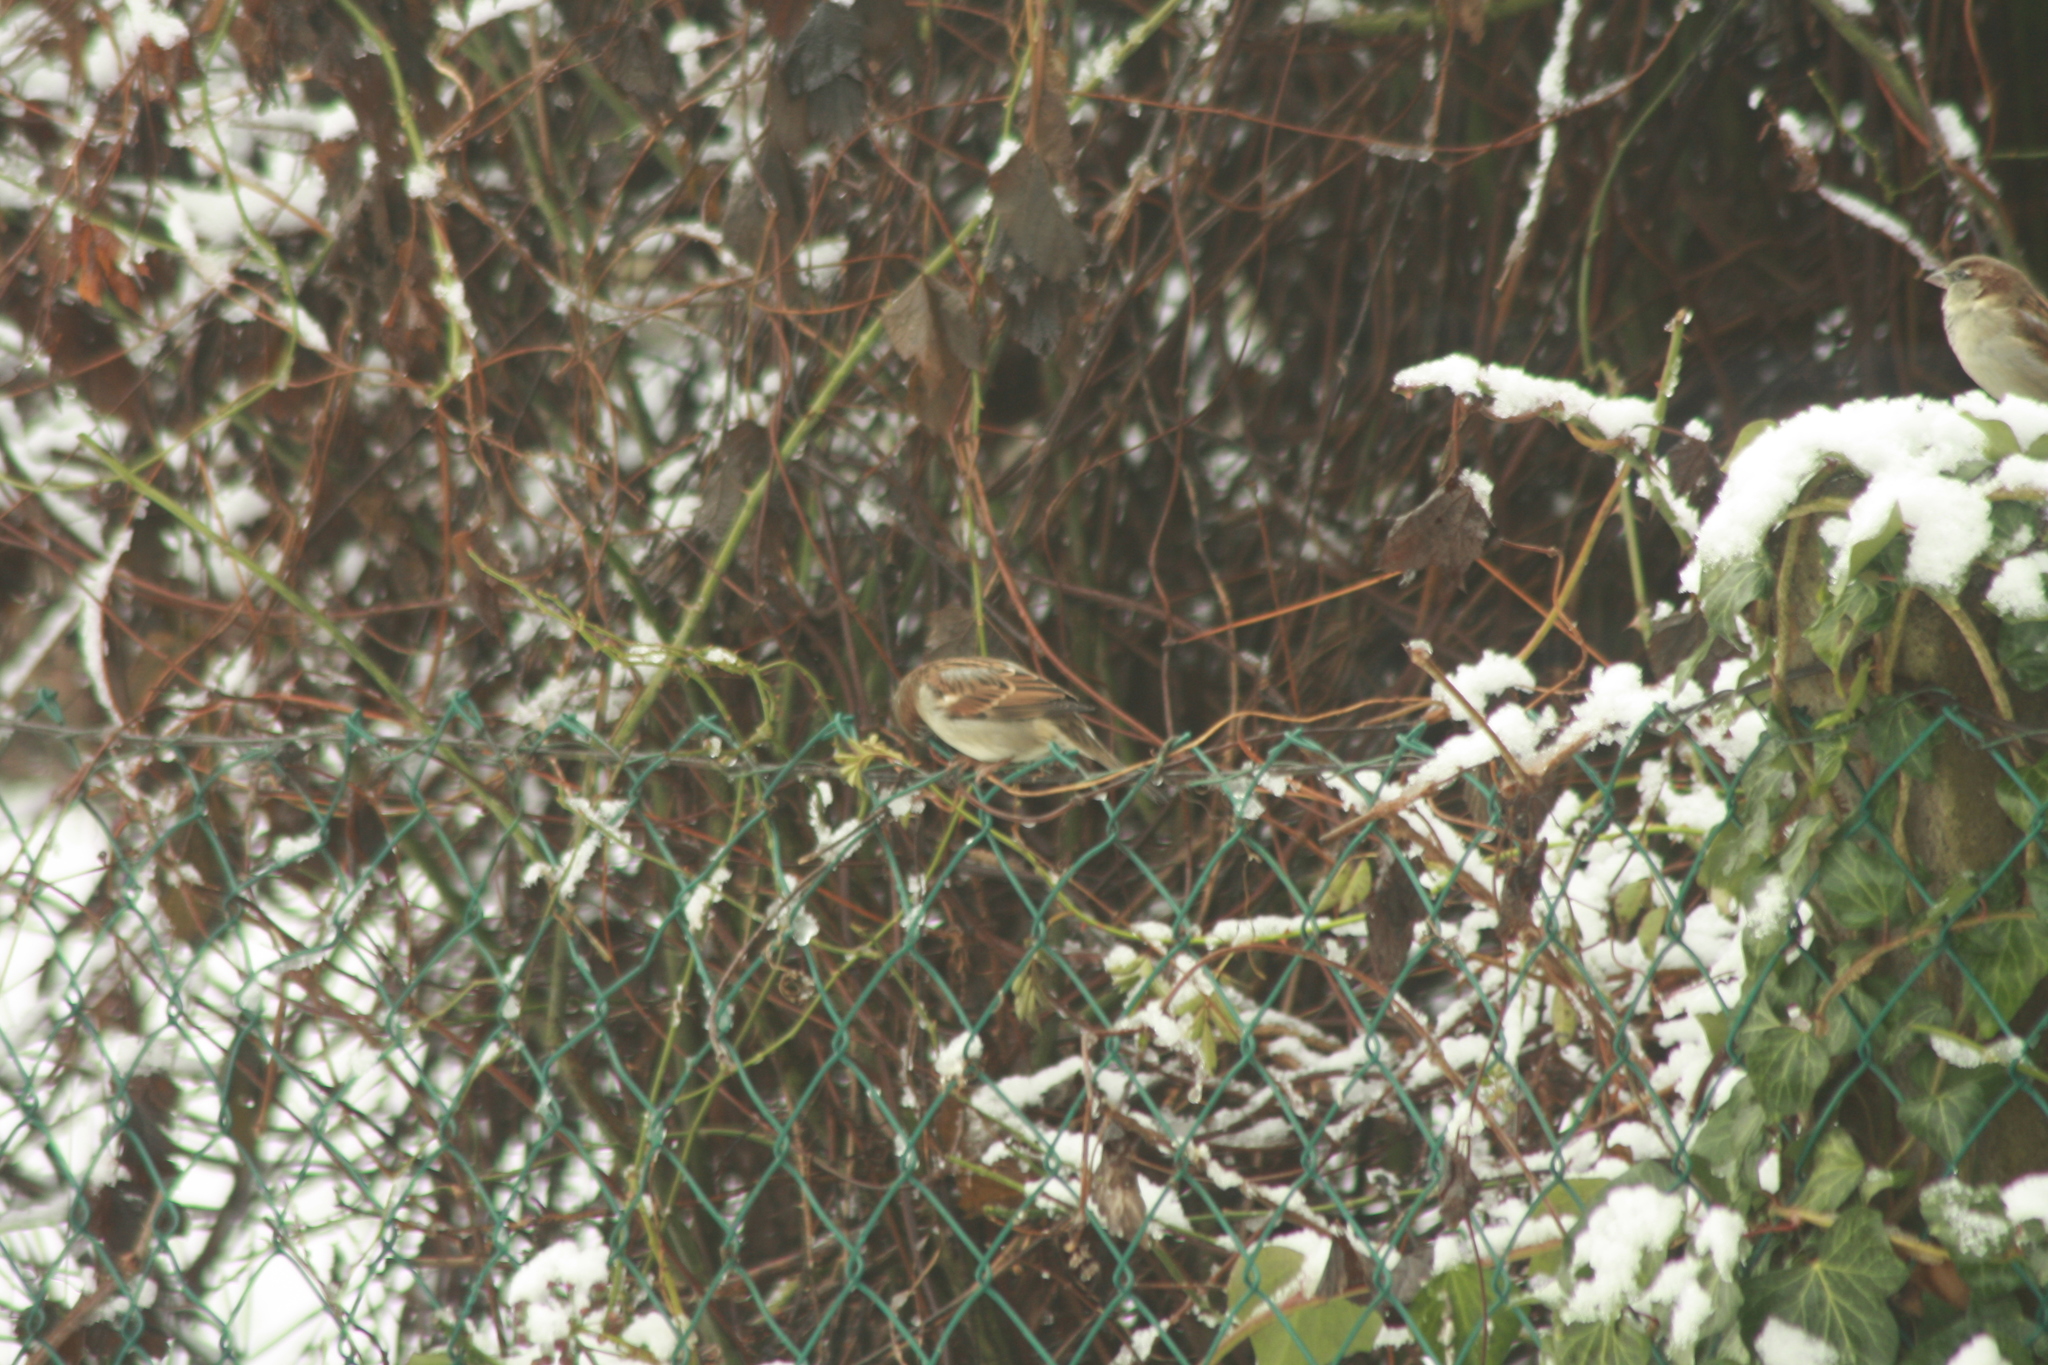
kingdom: Animalia
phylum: Chordata
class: Aves
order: Passeriformes
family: Passeridae
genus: Passer
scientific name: Passer domesticus
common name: House sparrow
